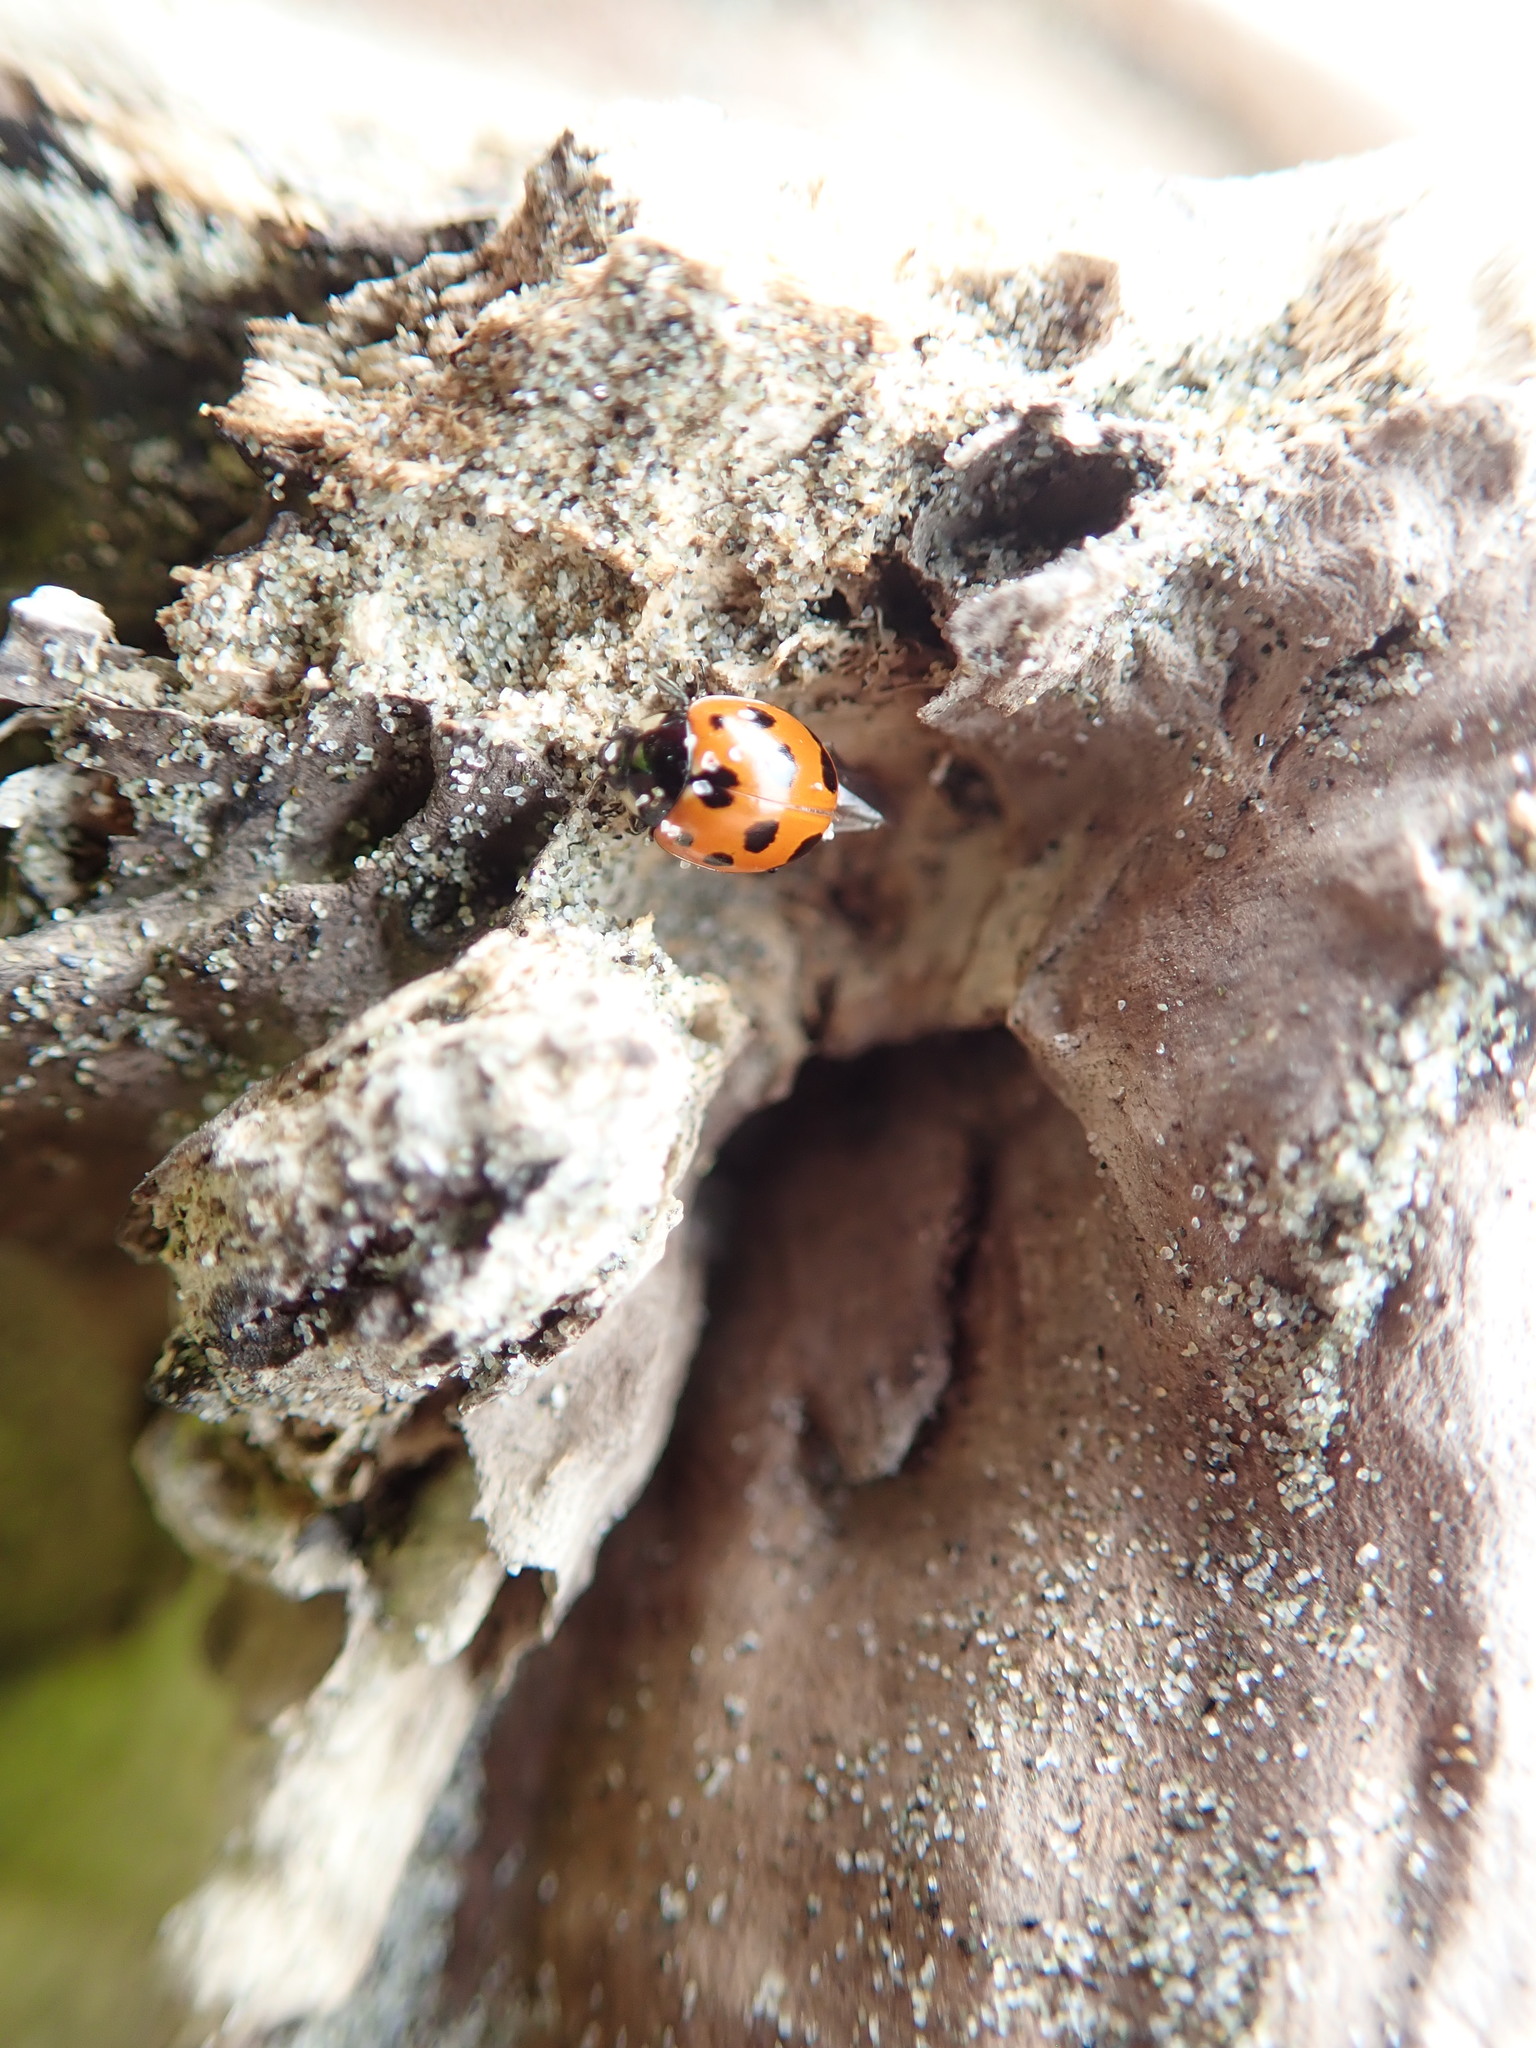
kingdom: Animalia
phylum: Arthropoda
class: Insecta
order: Coleoptera
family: Coccinellidae
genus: Coccinella
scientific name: Coccinella undecimpunctata
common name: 11-spot ladybird
